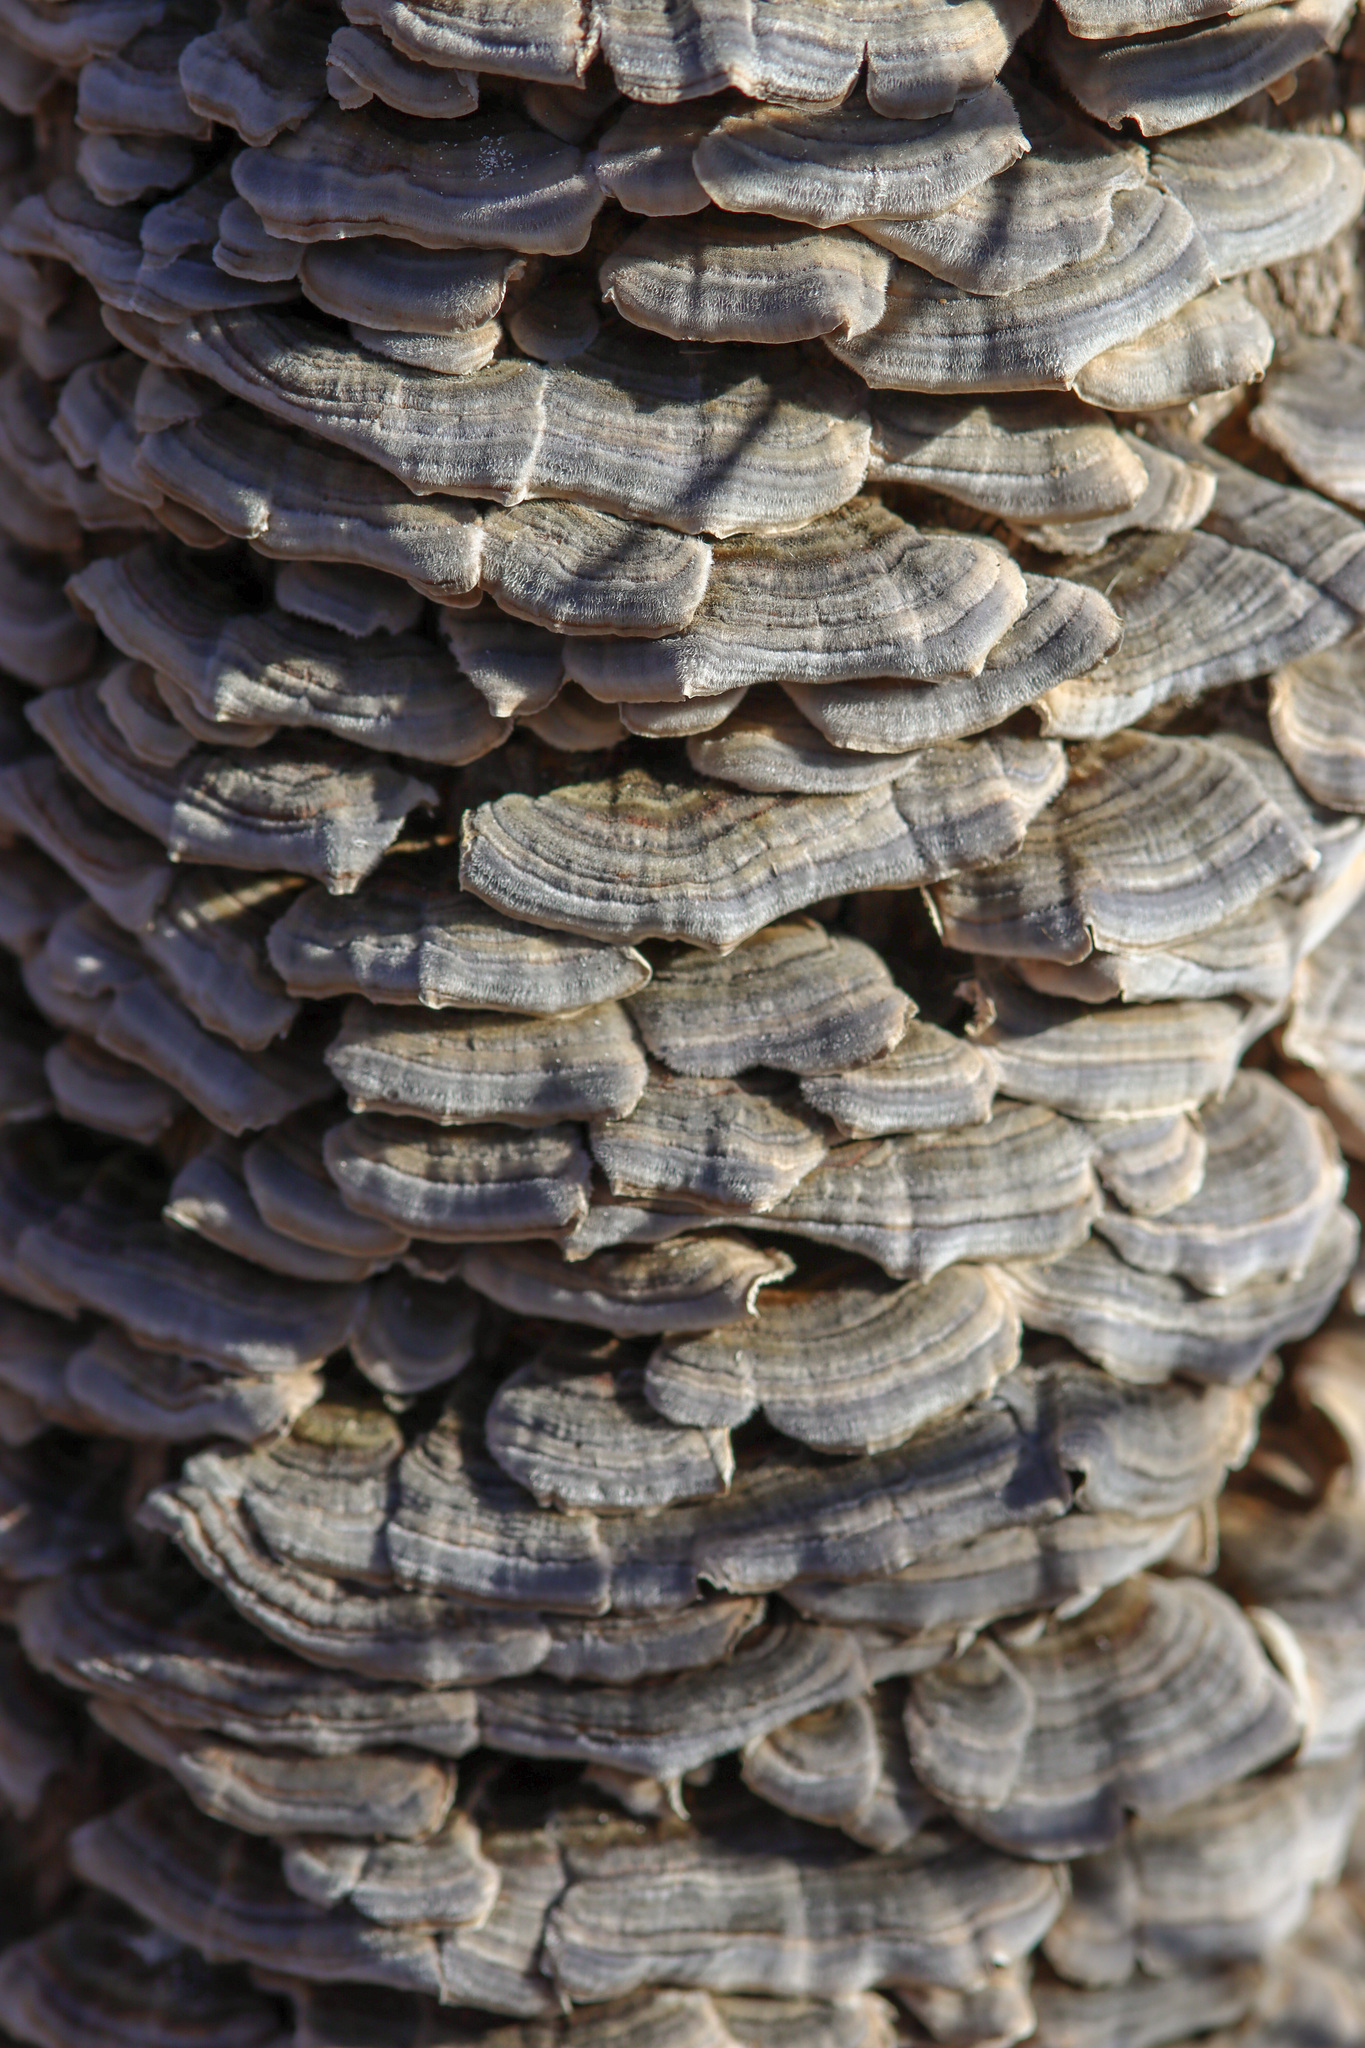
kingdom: Fungi
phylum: Basidiomycota
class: Agaricomycetes
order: Polyporales
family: Polyporaceae
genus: Trametes
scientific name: Trametes versicolor
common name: Turkeytail
